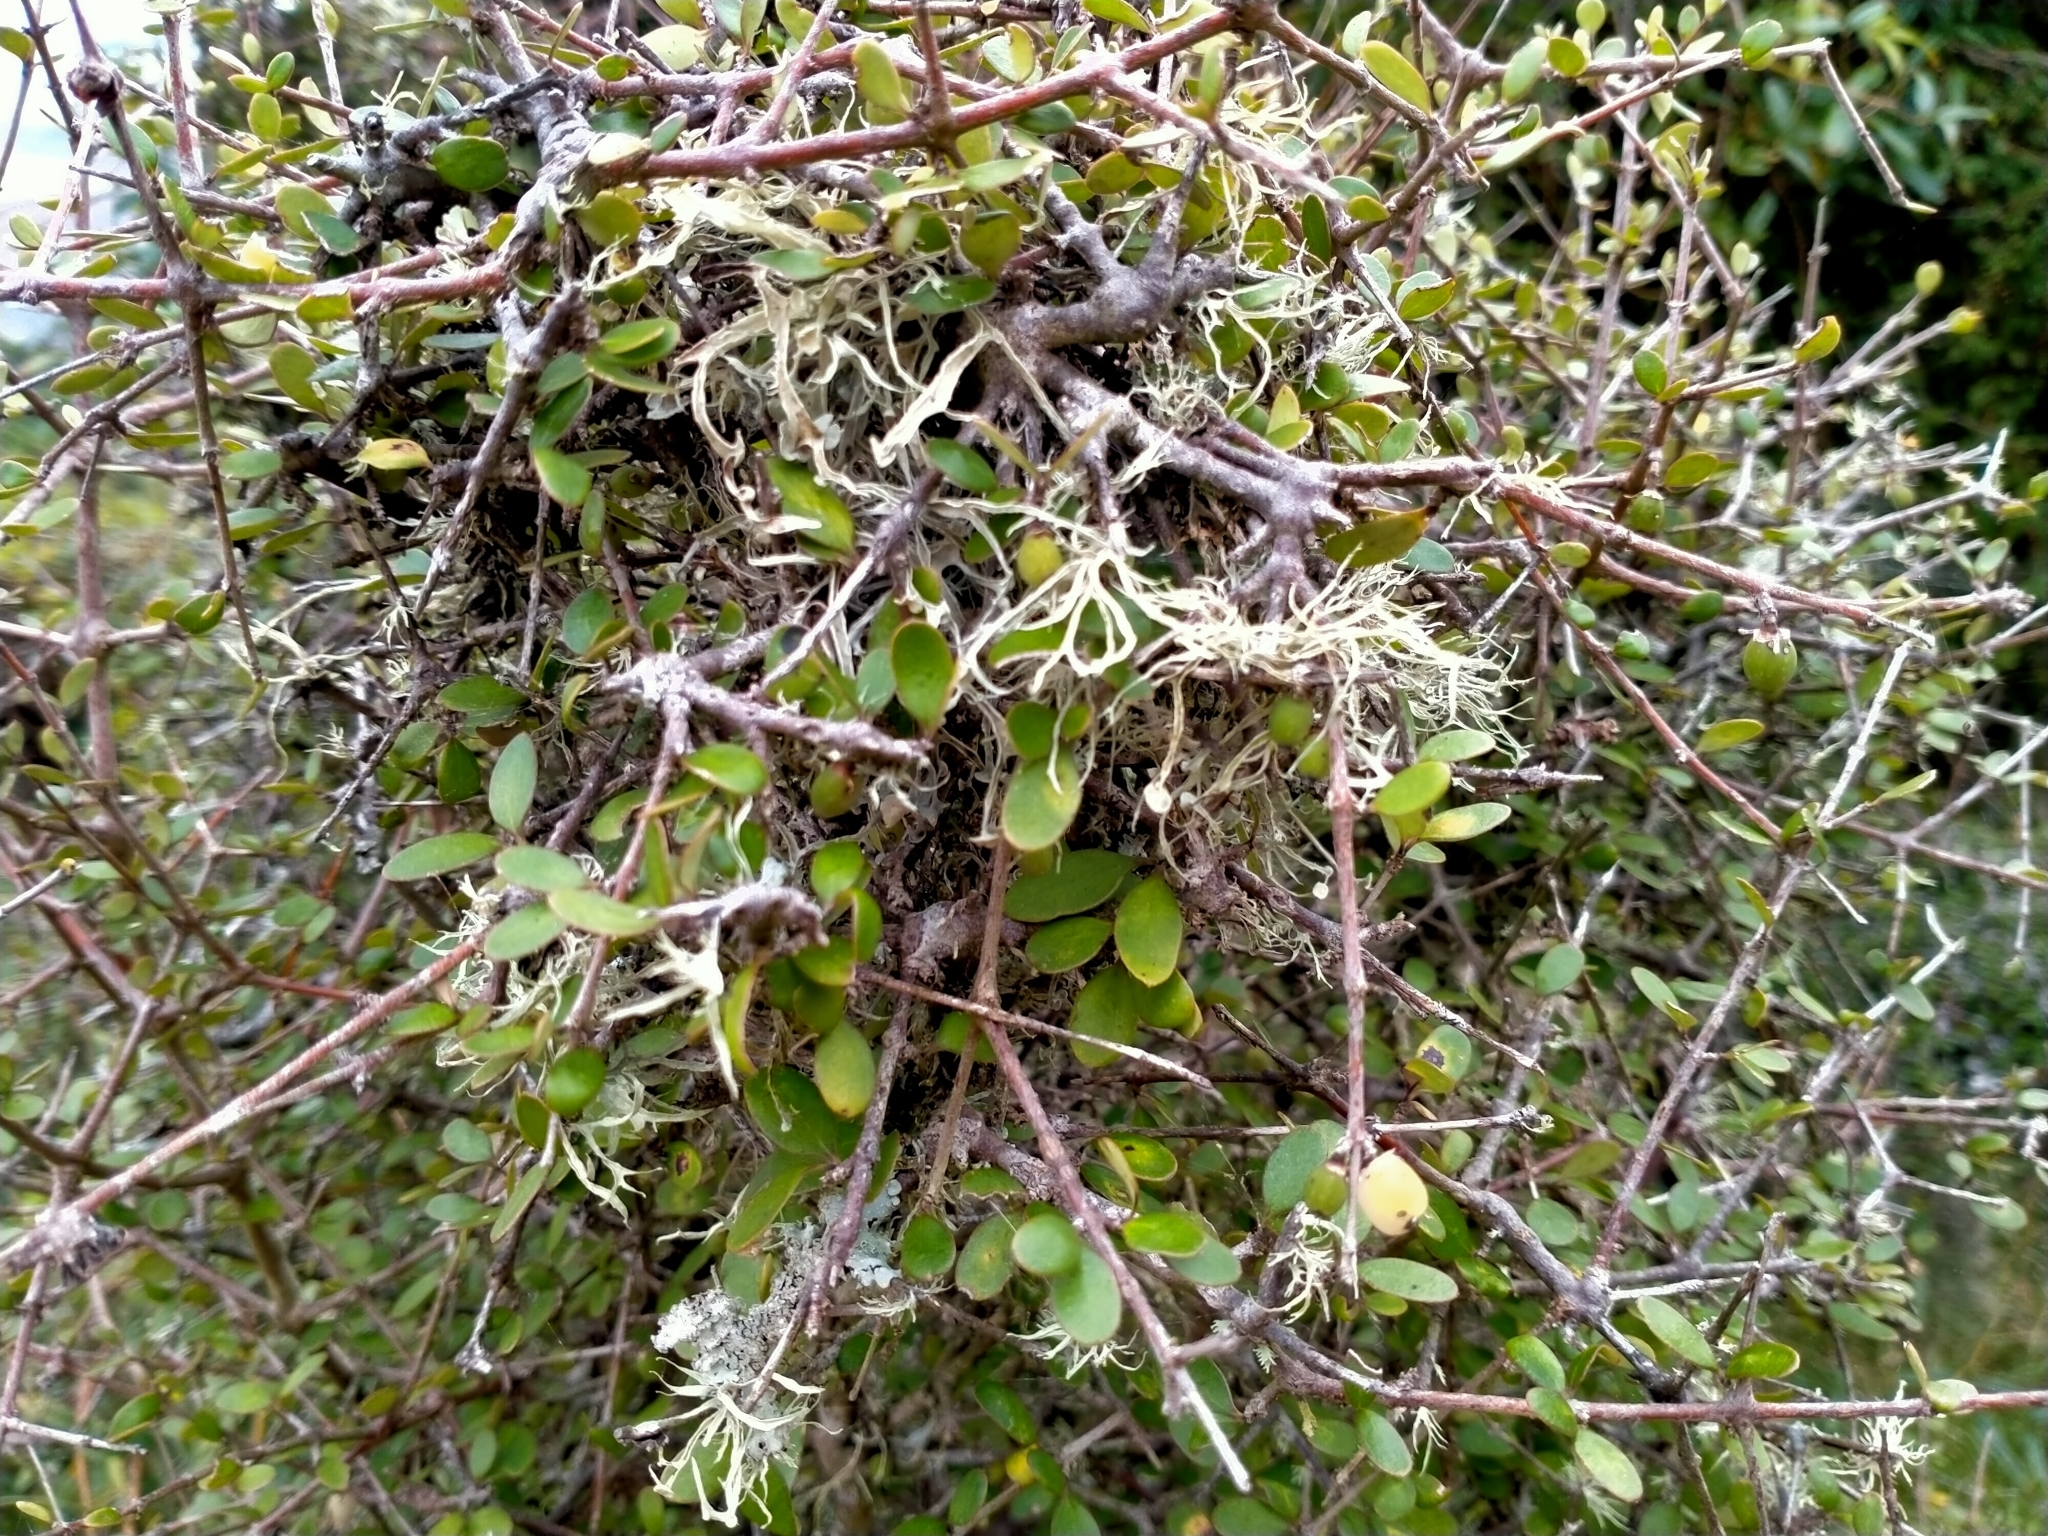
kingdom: Plantae
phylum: Tracheophyta
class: Magnoliopsida
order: Gentianales
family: Rubiaceae
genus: Coprosma
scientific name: Coprosma crassifolia
